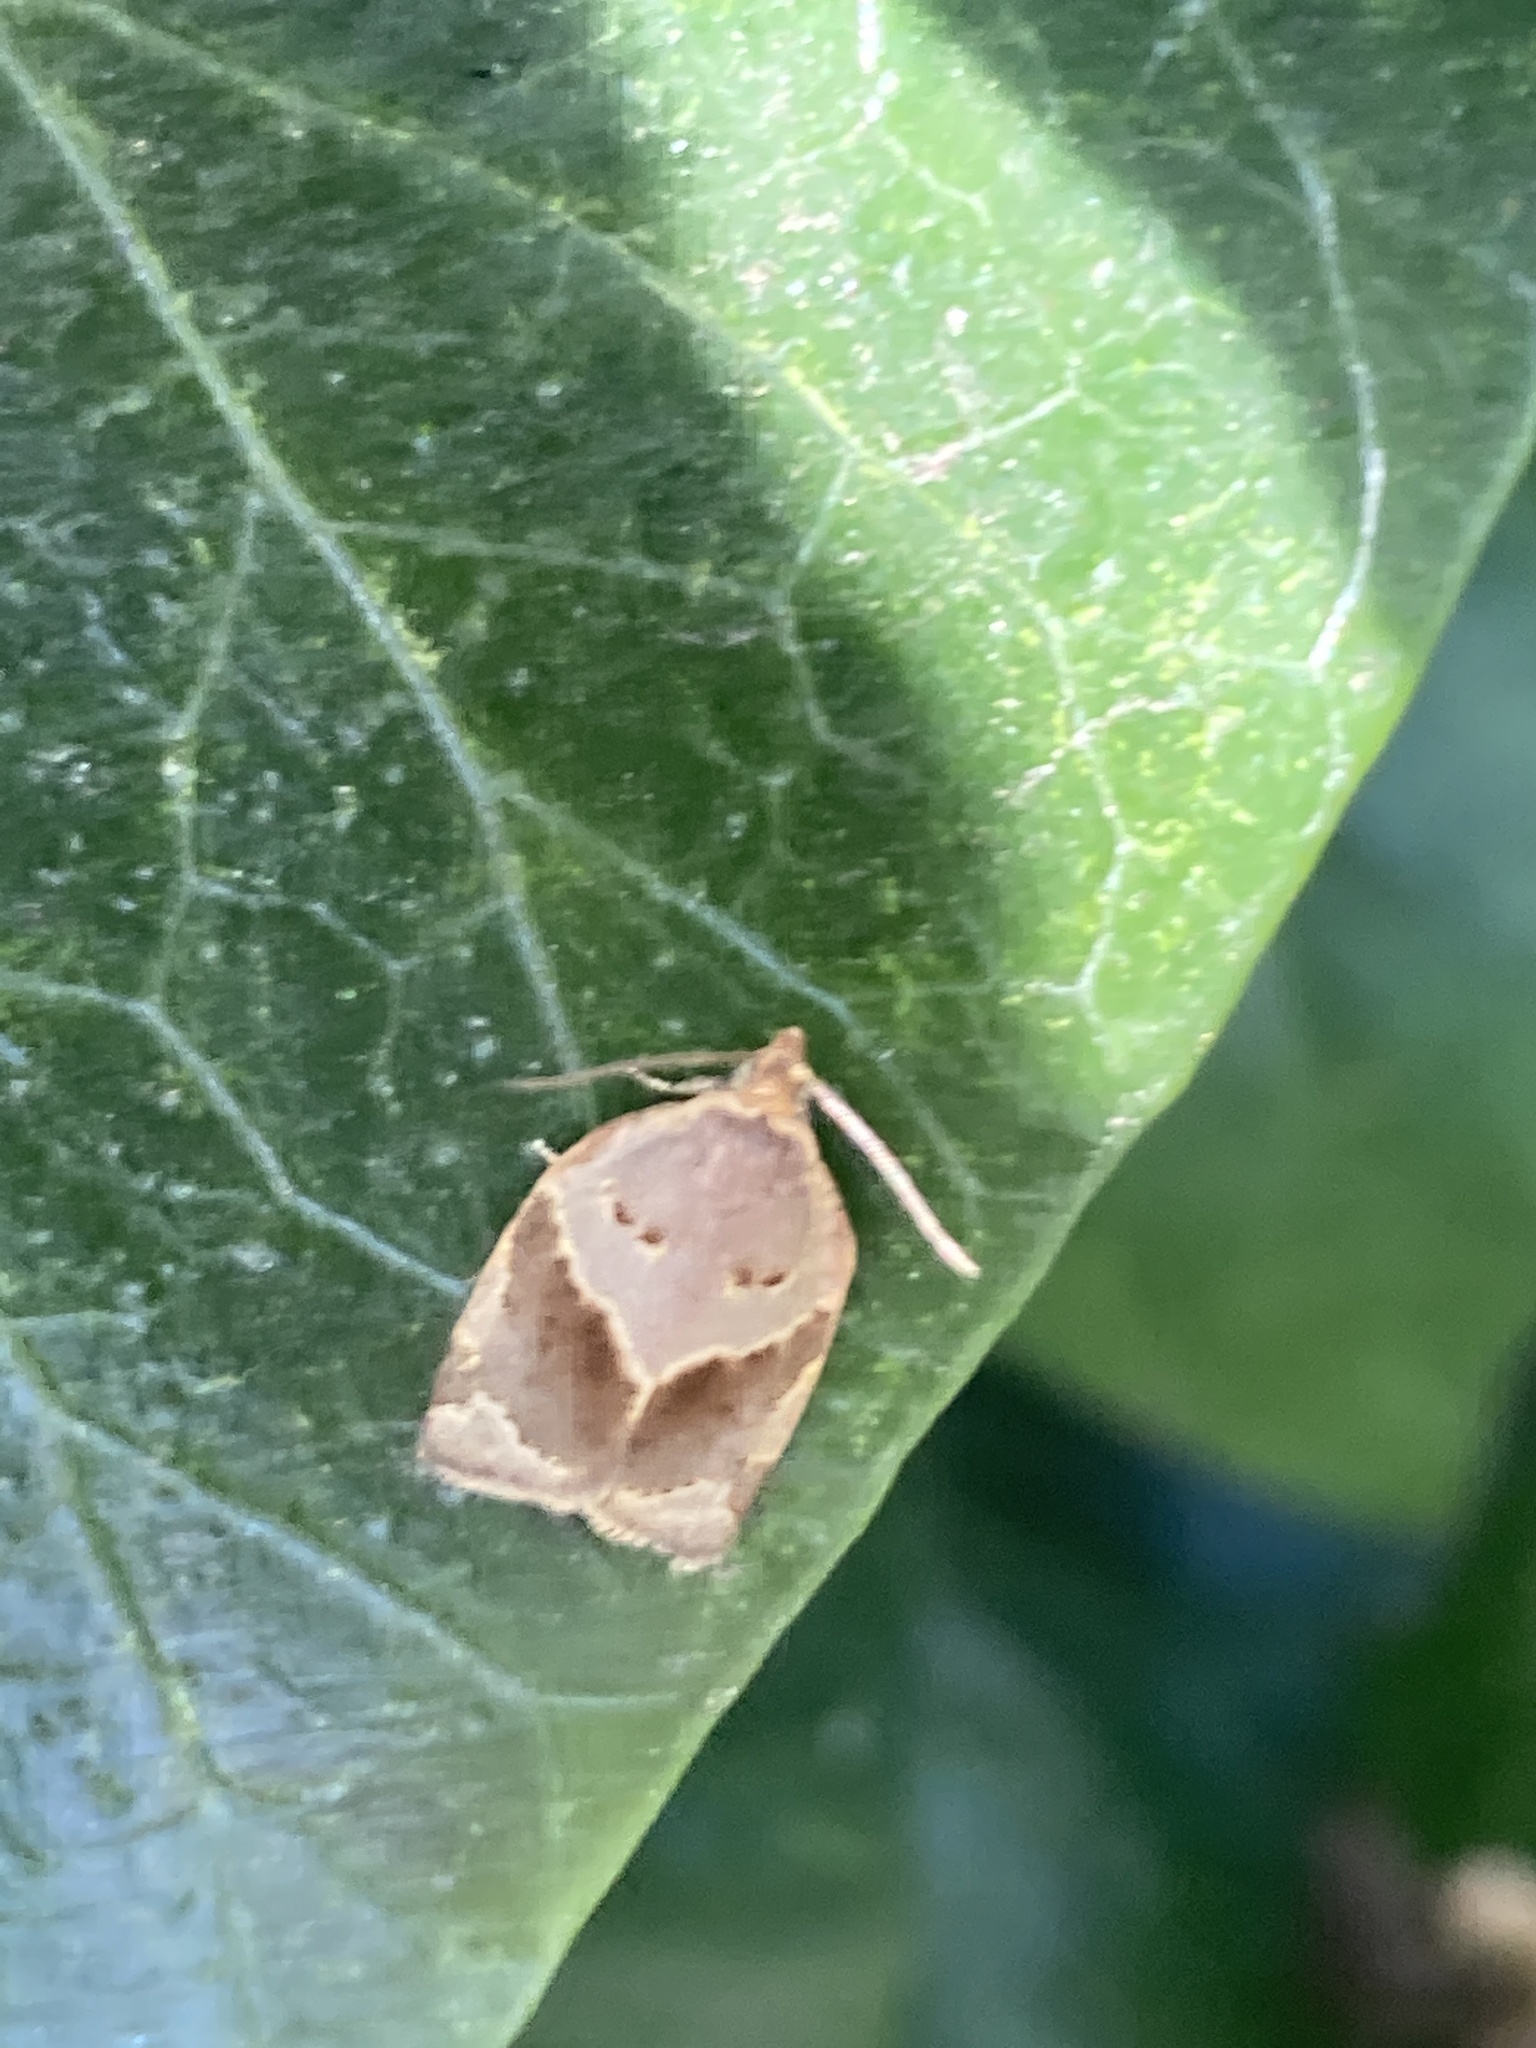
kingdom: Animalia
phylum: Arthropoda
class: Insecta
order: Lepidoptera
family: Tortricidae
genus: Clepsis
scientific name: Clepsis dumicolana
